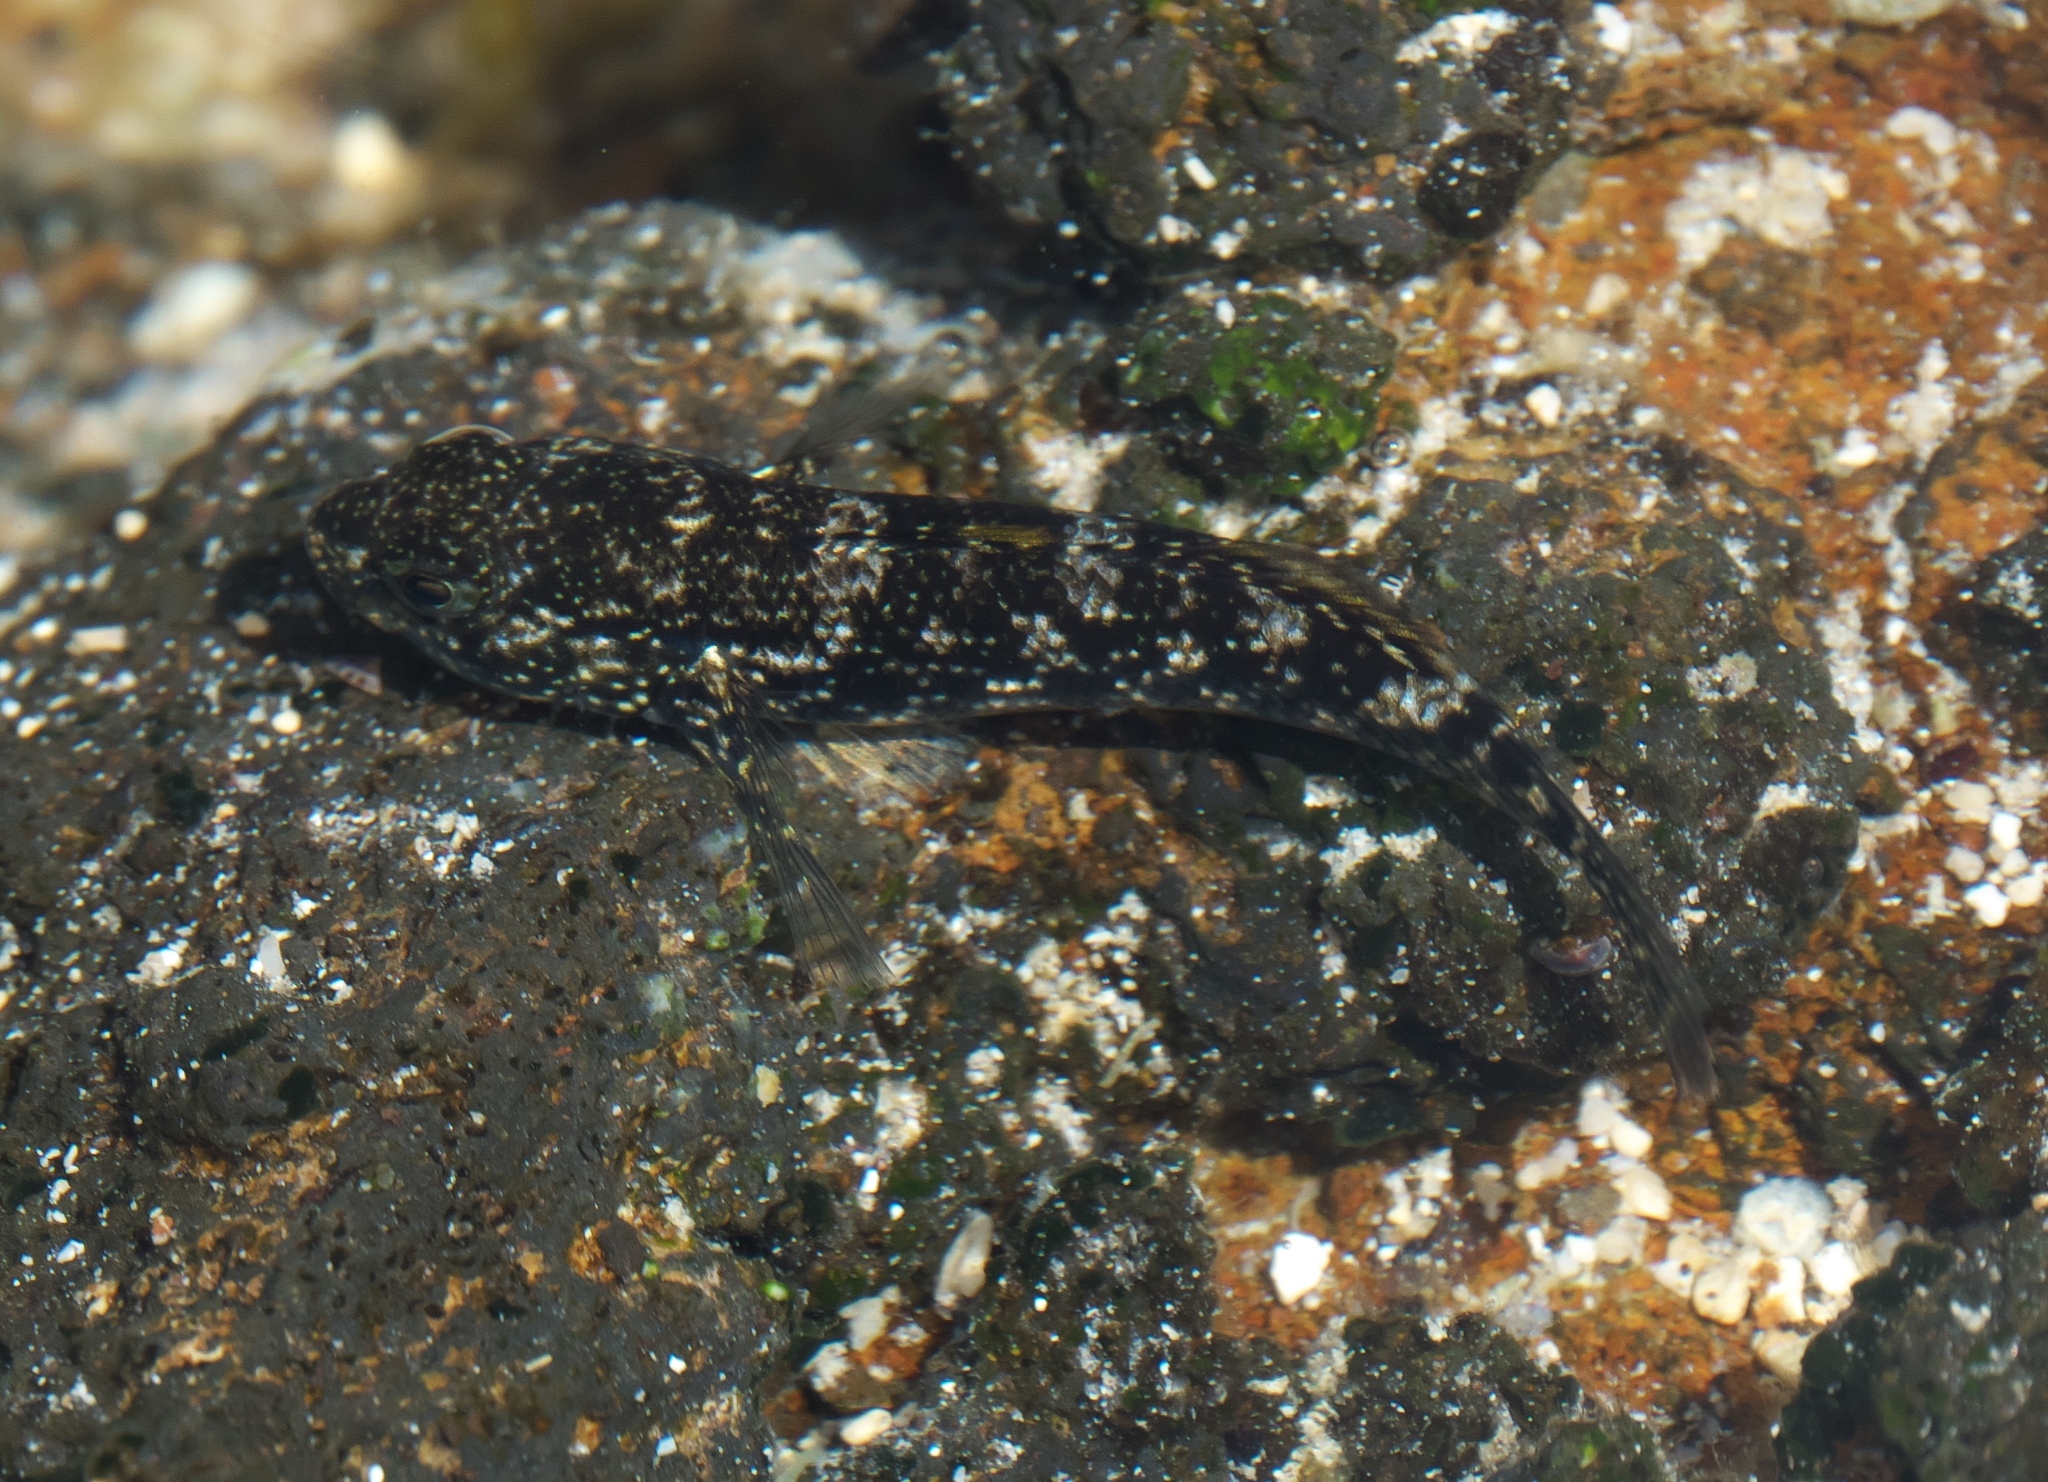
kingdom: Animalia
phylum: Chordata
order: Perciformes
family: Gobiidae
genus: Bathygobius
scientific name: Bathygobius coalitus
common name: Whitespotted goby
